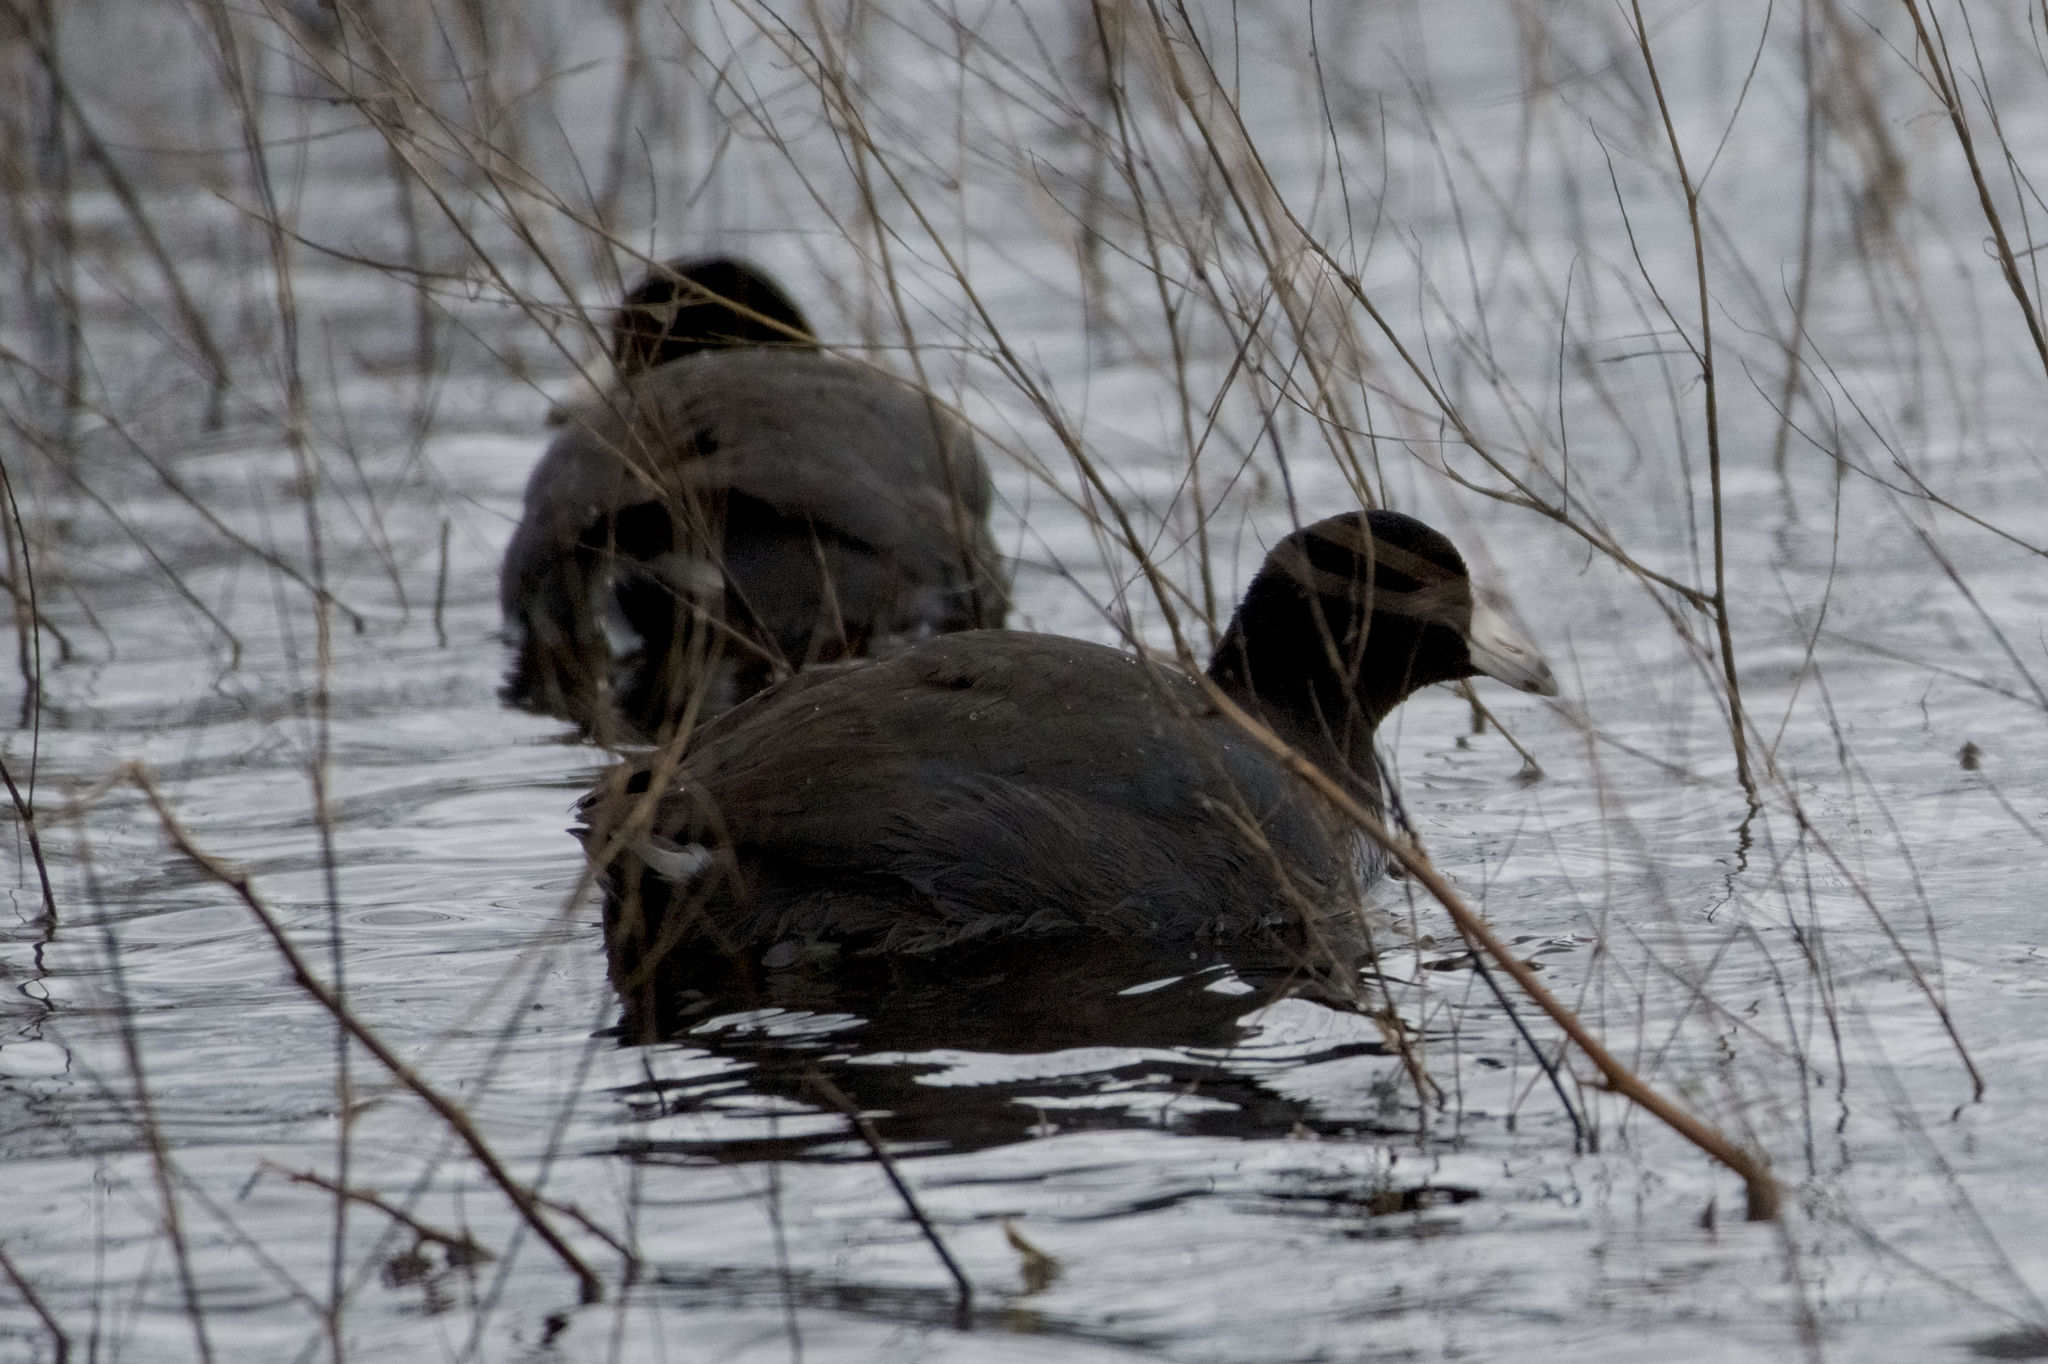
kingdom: Animalia
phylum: Chordata
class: Aves
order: Gruiformes
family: Rallidae
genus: Fulica
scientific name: Fulica americana
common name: American coot
